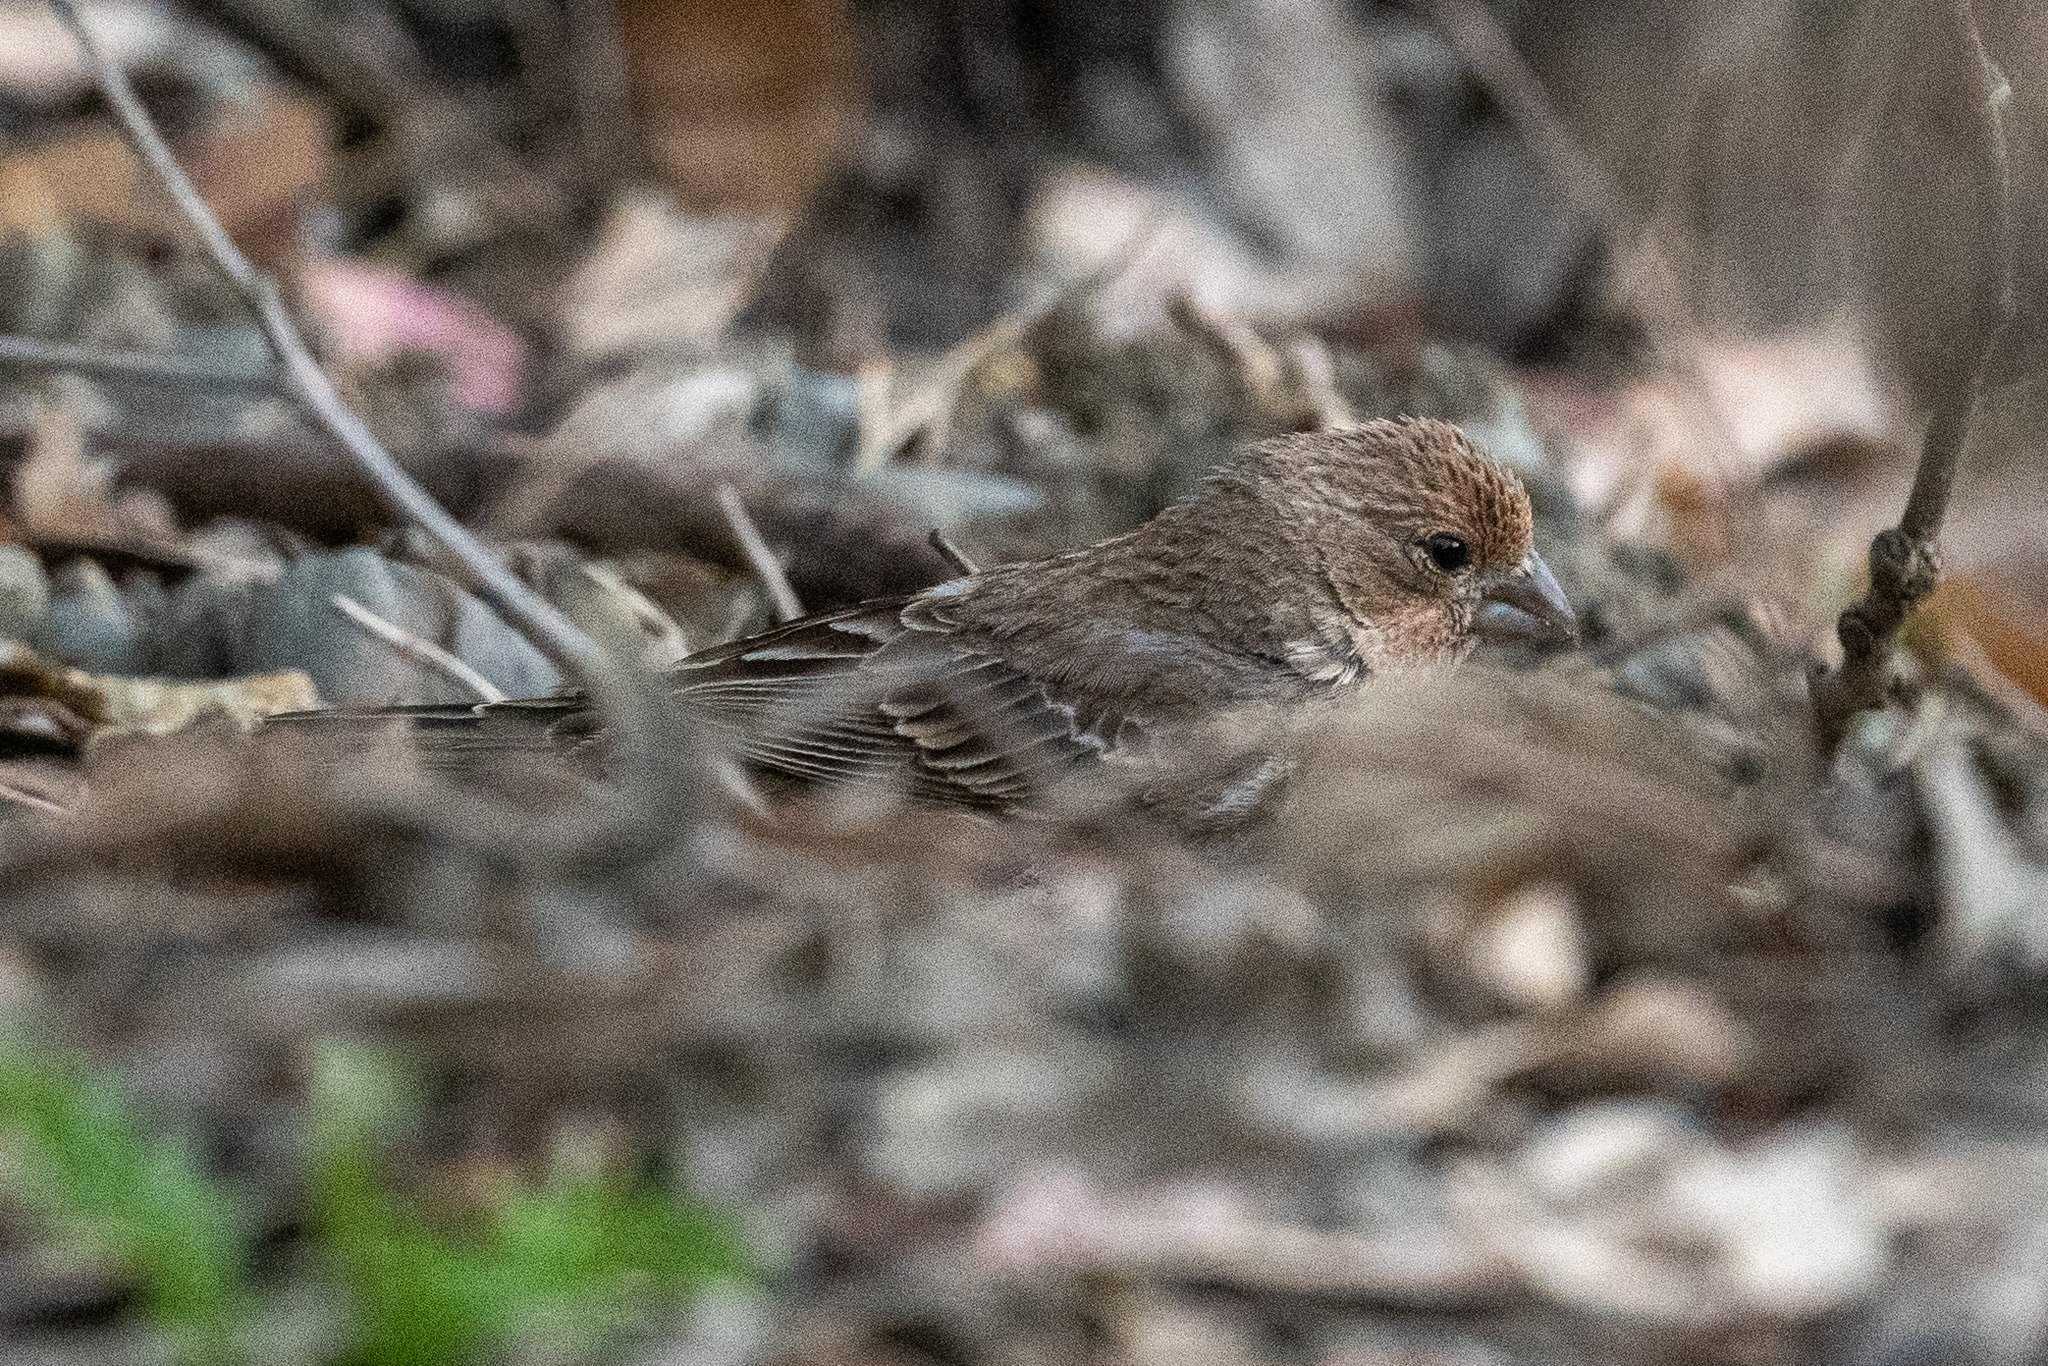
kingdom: Animalia
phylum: Chordata
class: Aves
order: Passeriformes
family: Fringillidae
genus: Haemorhous
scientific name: Haemorhous mexicanus
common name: House finch
